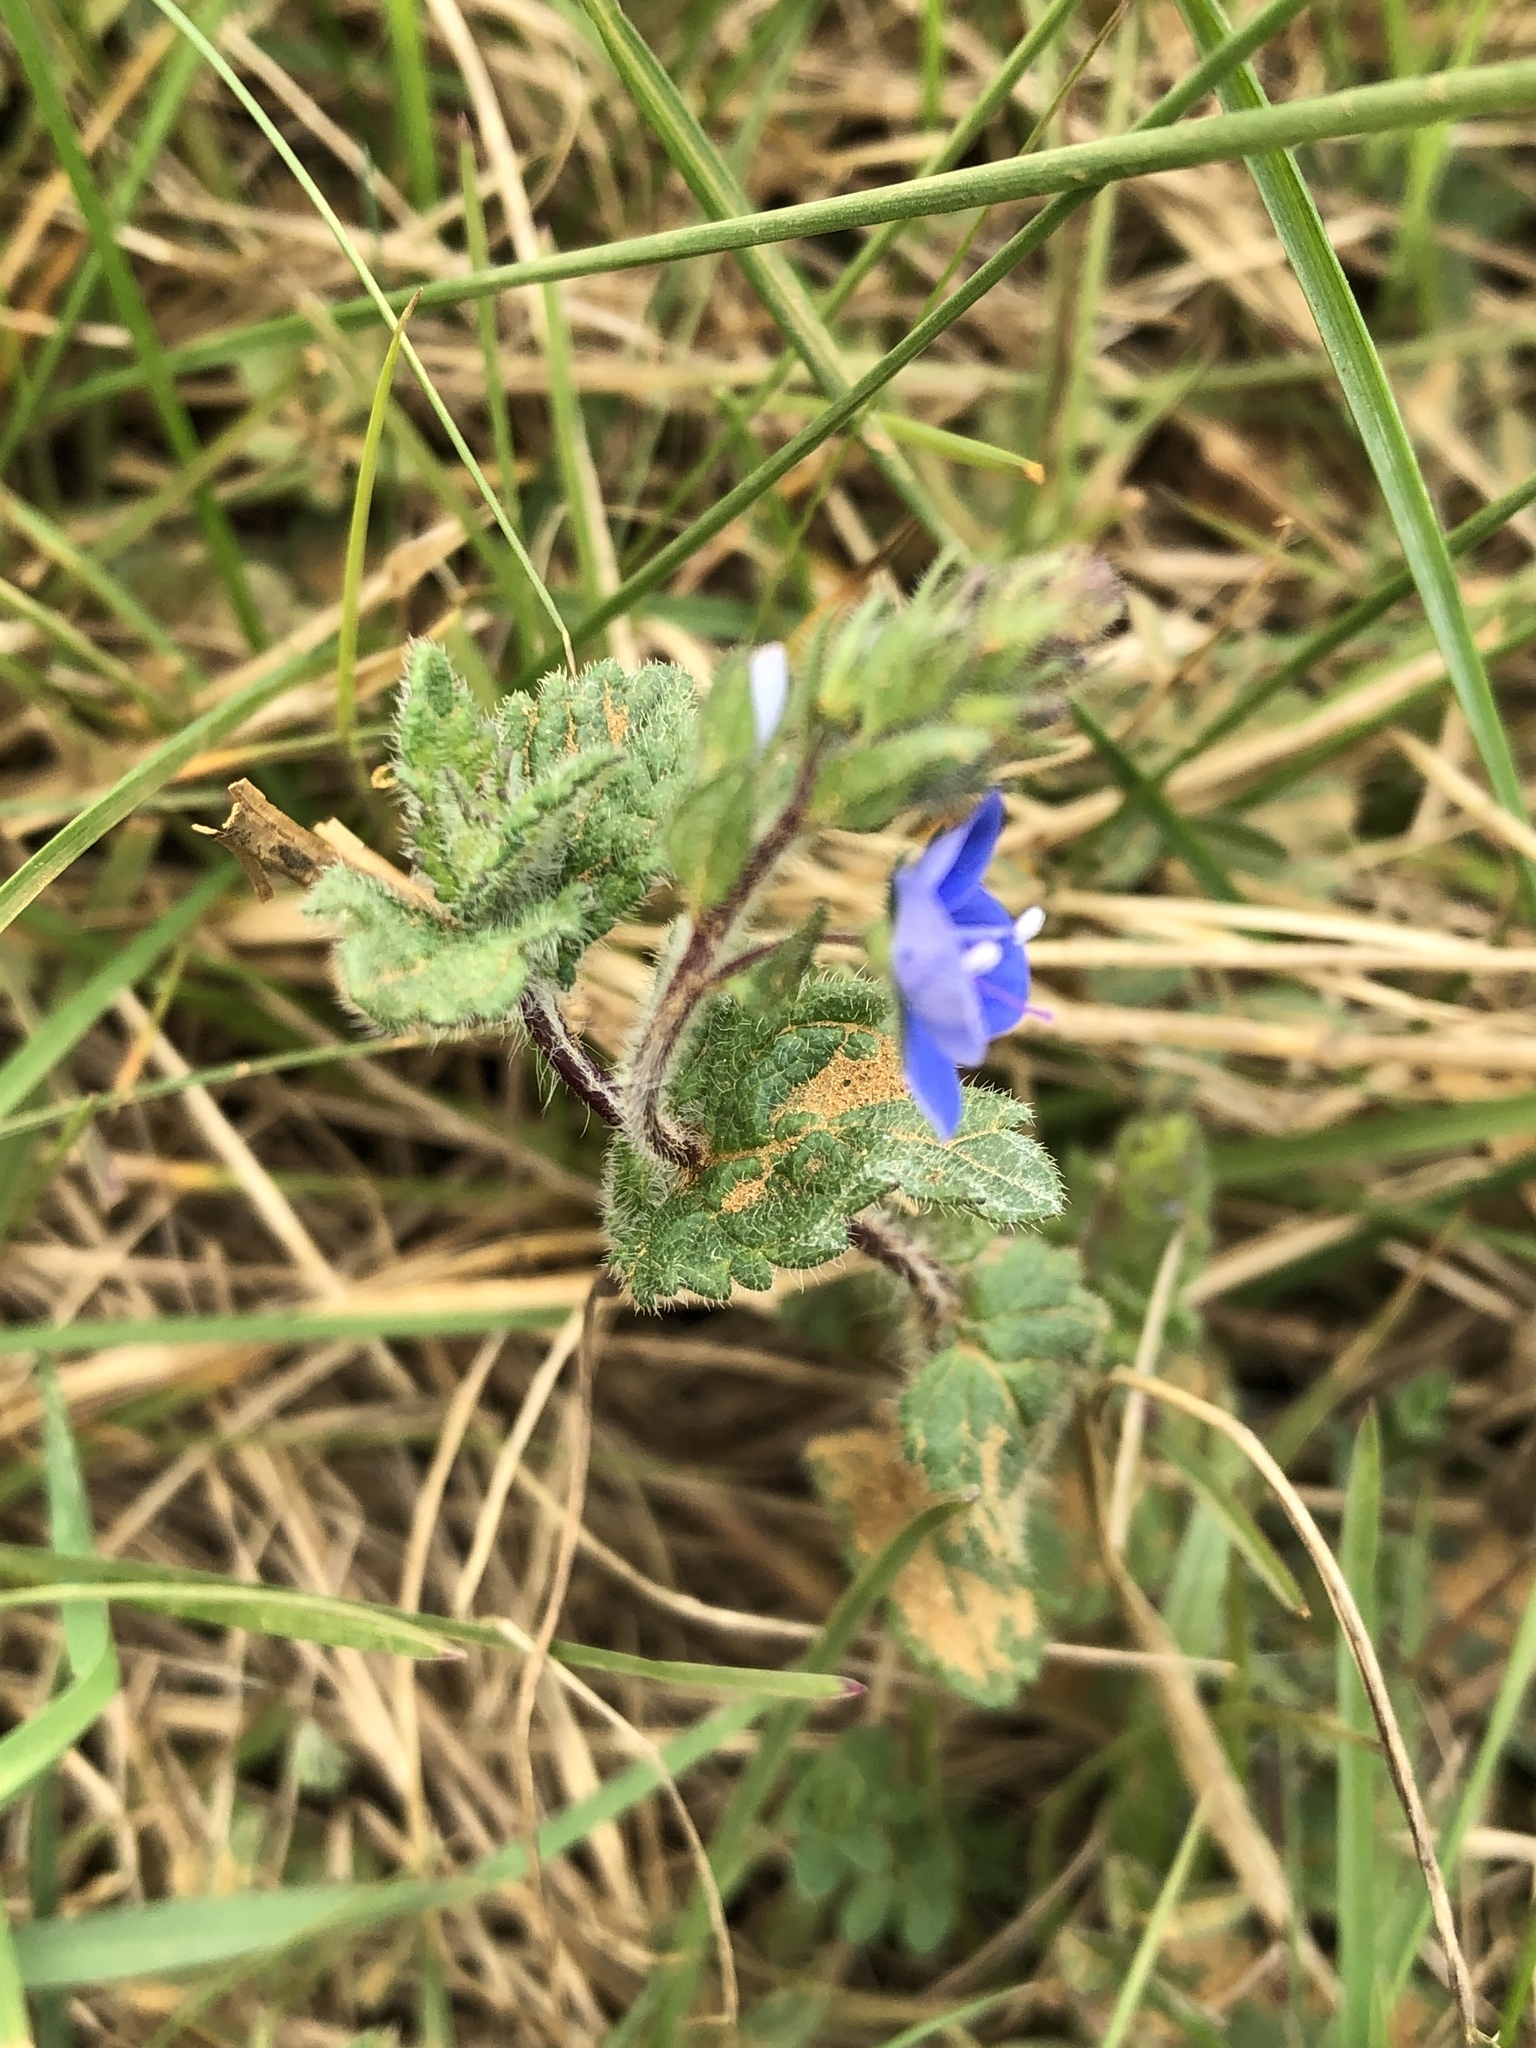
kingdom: Plantae
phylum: Tracheophyta
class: Magnoliopsida
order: Lamiales
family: Plantaginaceae
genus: Veronica
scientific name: Veronica chamaedrys
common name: Germander speedwell
